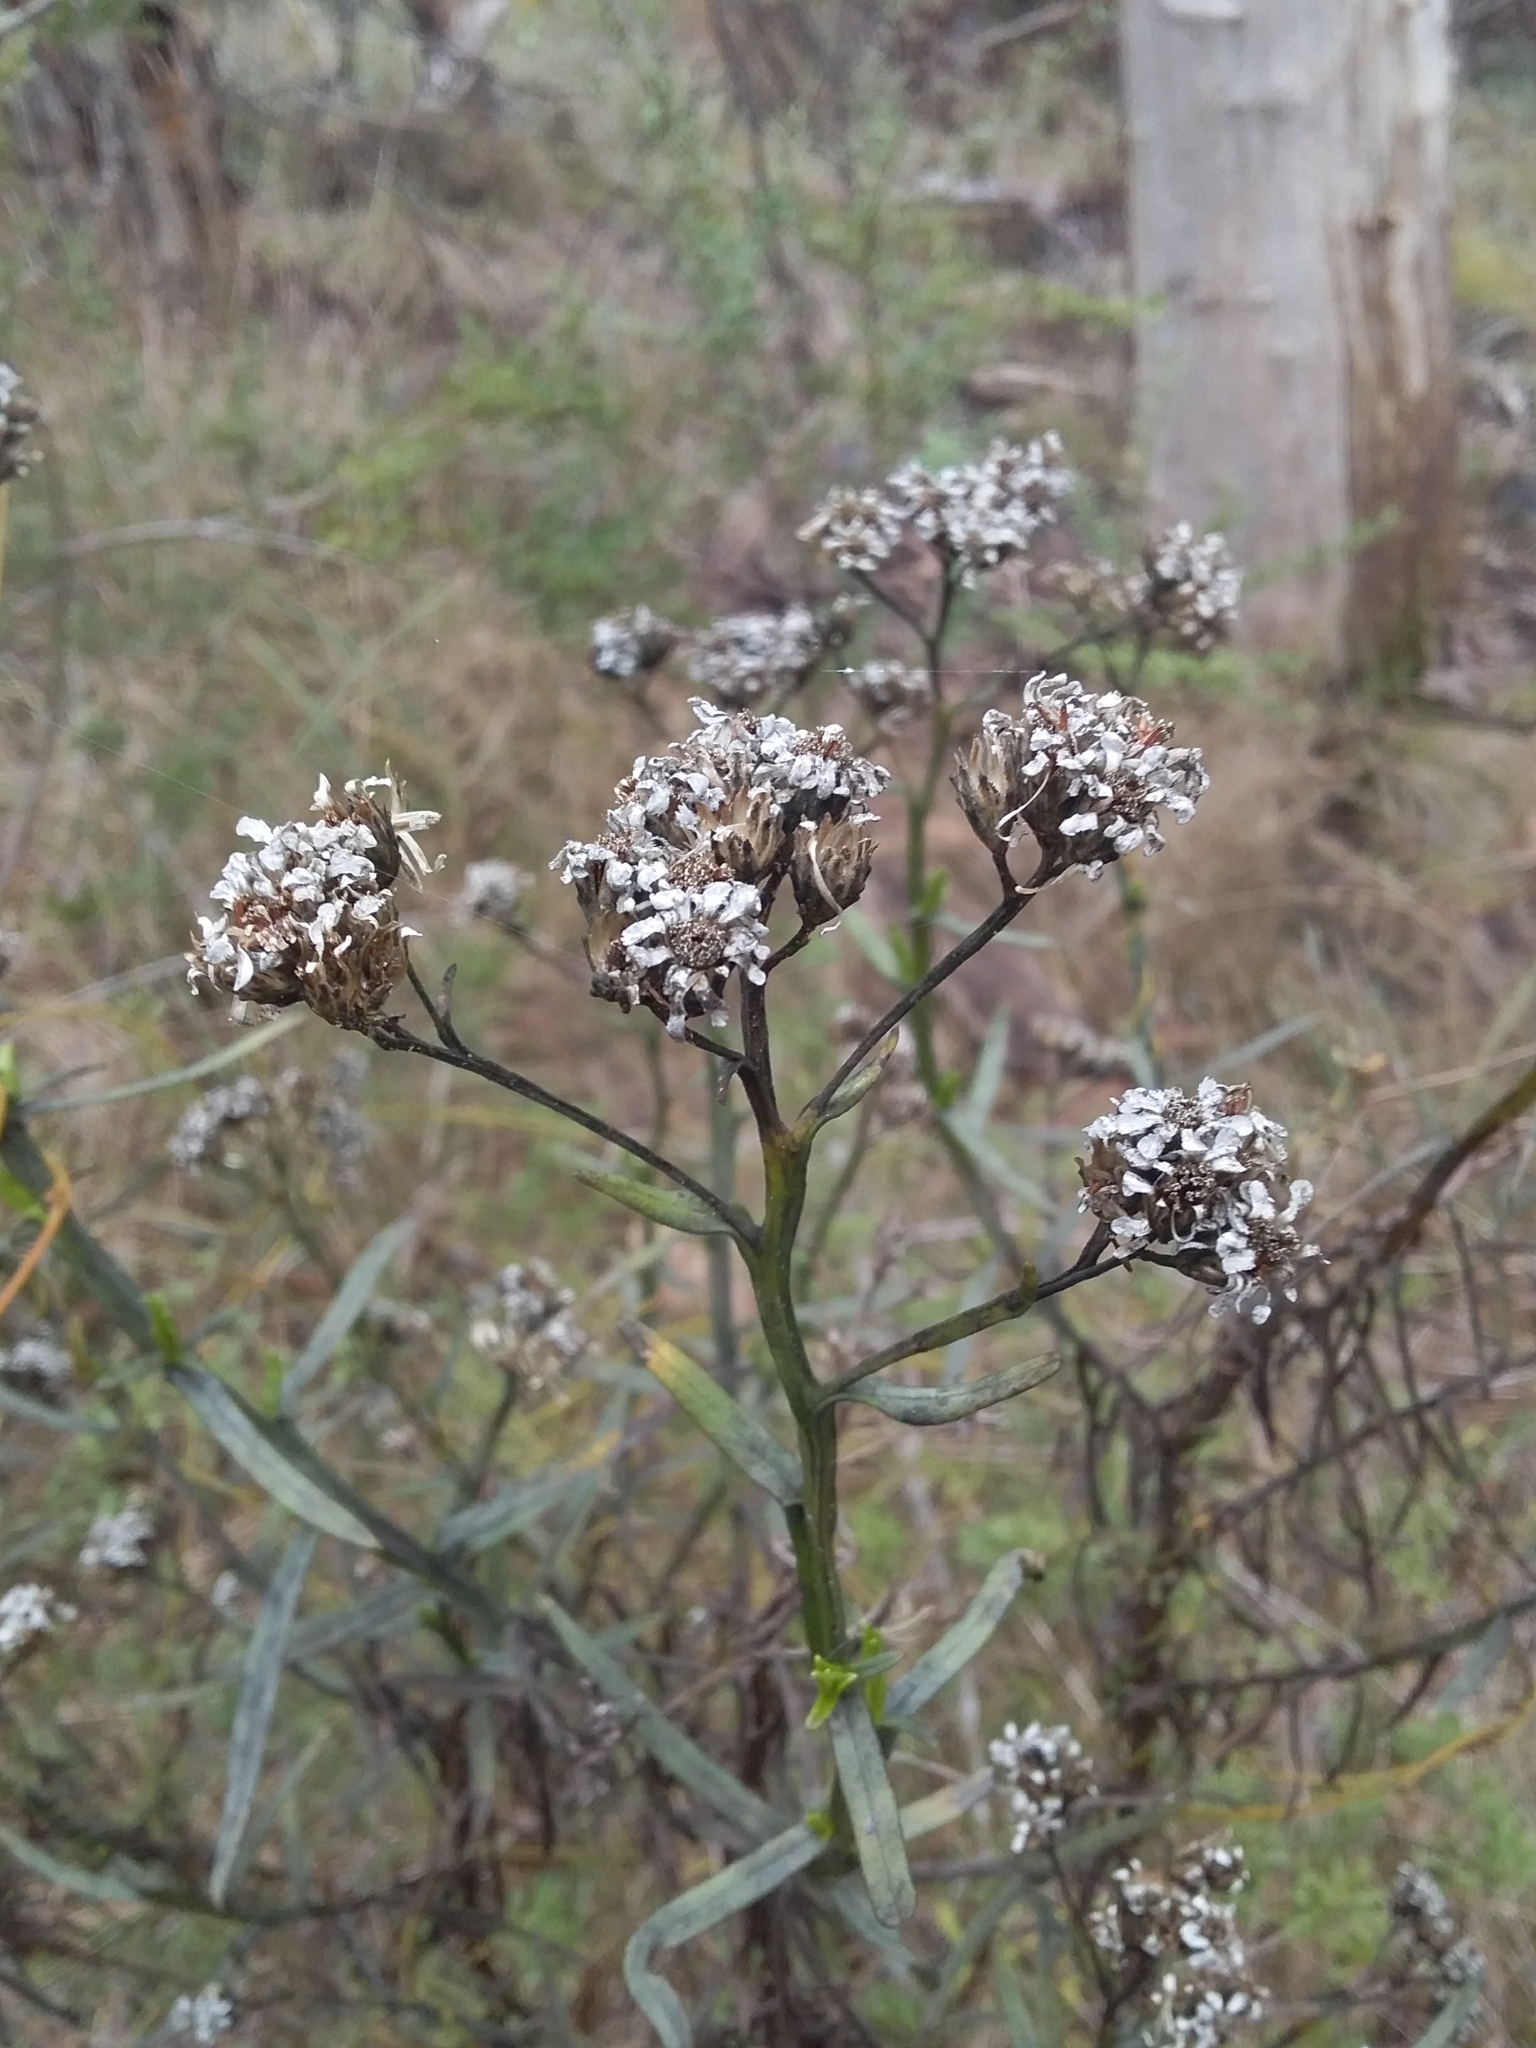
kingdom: Plantae
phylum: Tracheophyta
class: Magnoliopsida
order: Asterales
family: Asteraceae
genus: Ixodia
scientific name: Ixodia achillaeoides
